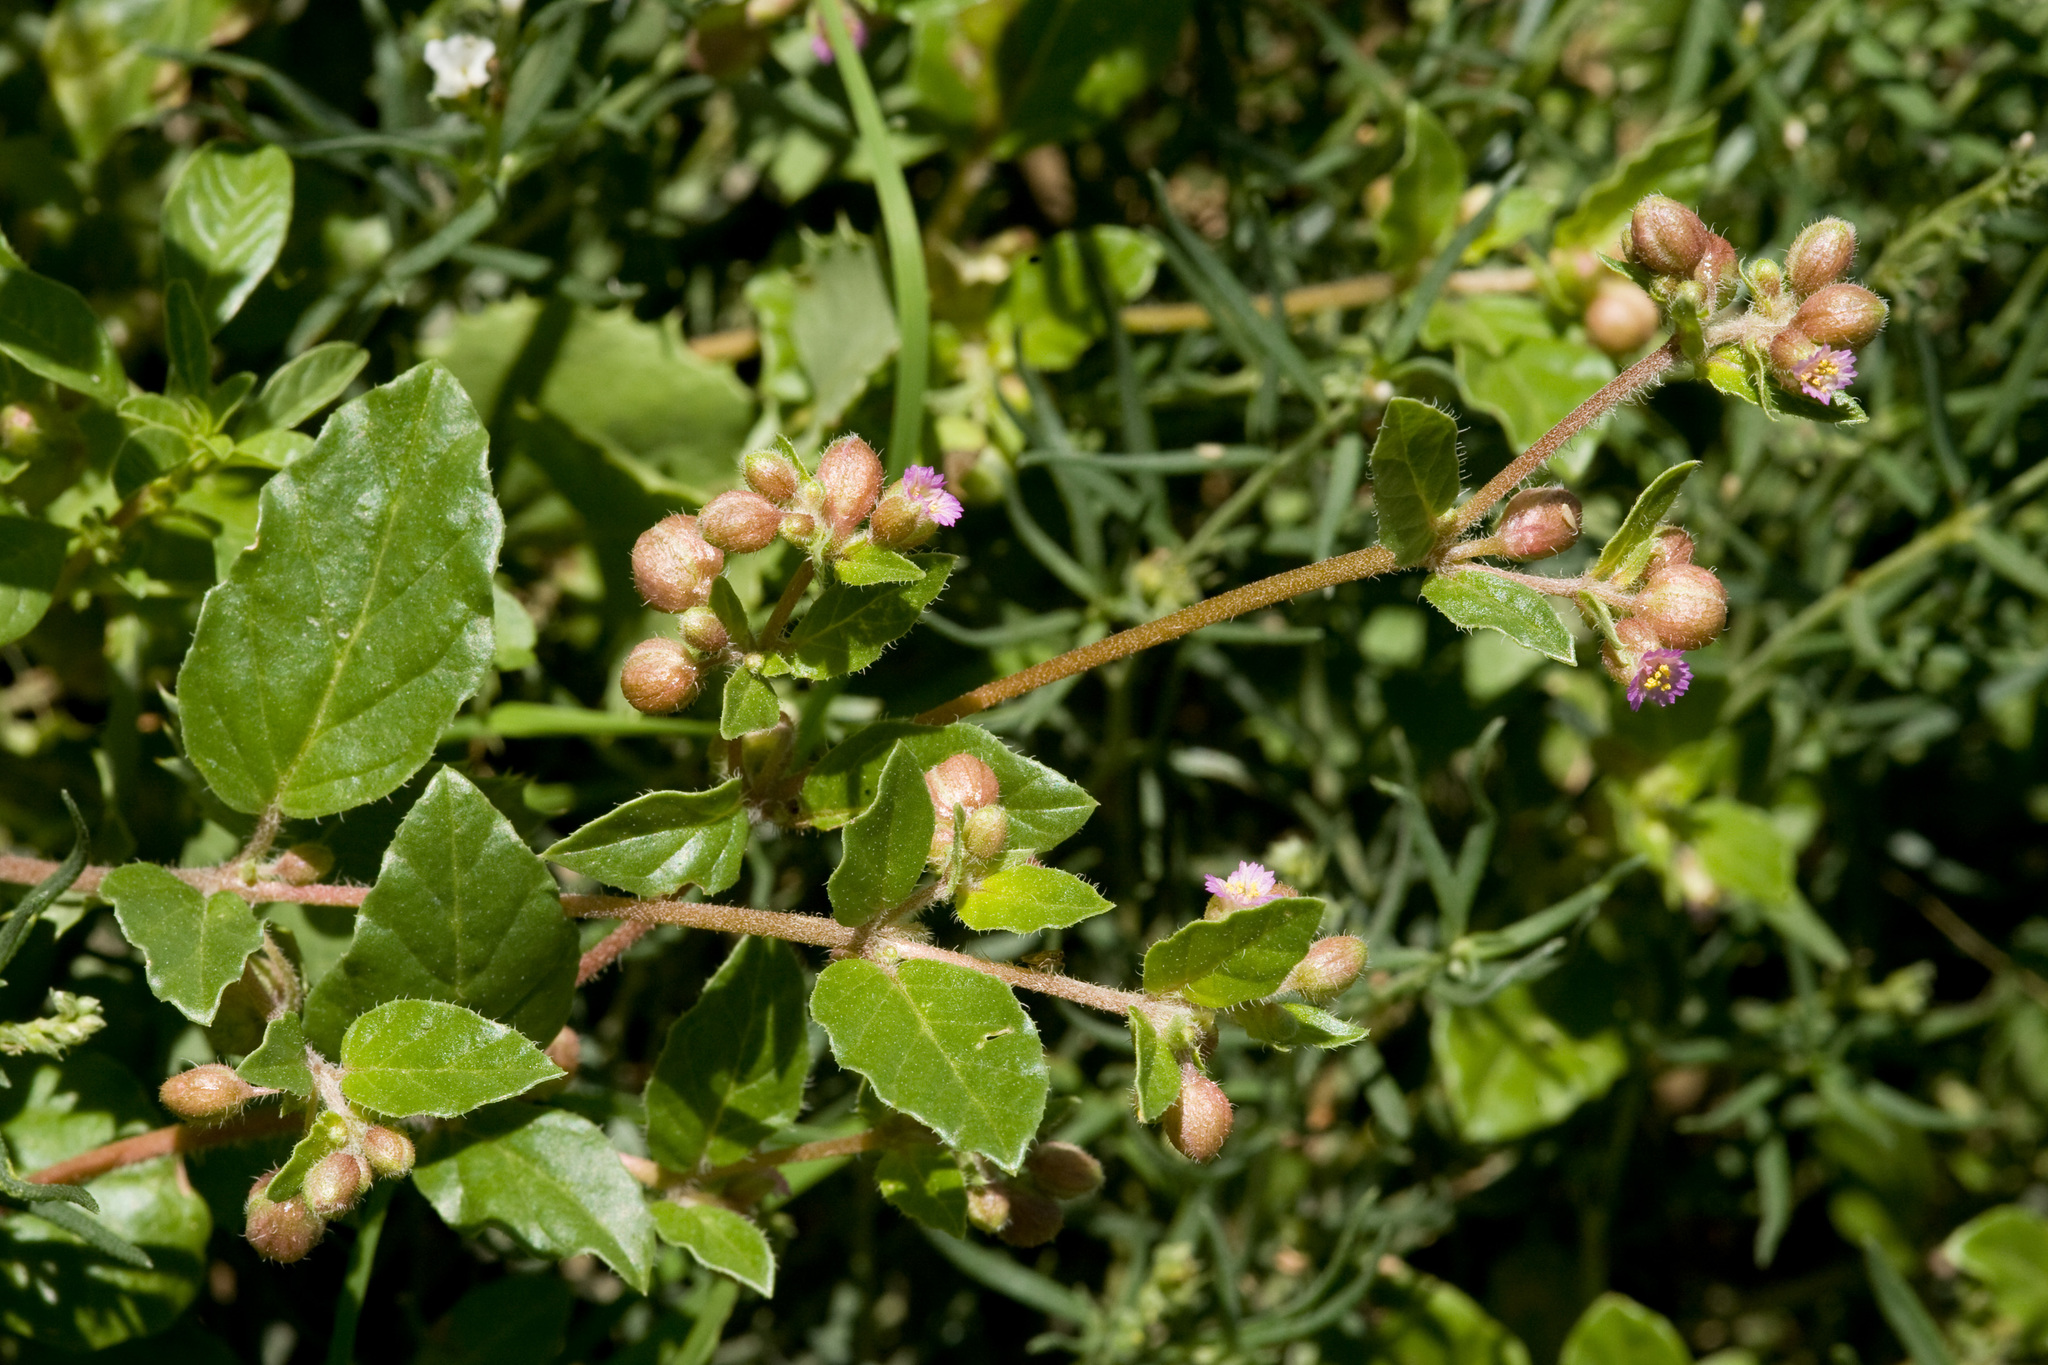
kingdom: Plantae
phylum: Tracheophyta
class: Magnoliopsida
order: Caryophyllales
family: Nyctaginaceae
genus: Allionia
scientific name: Allionia choisyi
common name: Trailing-four-o'clock
